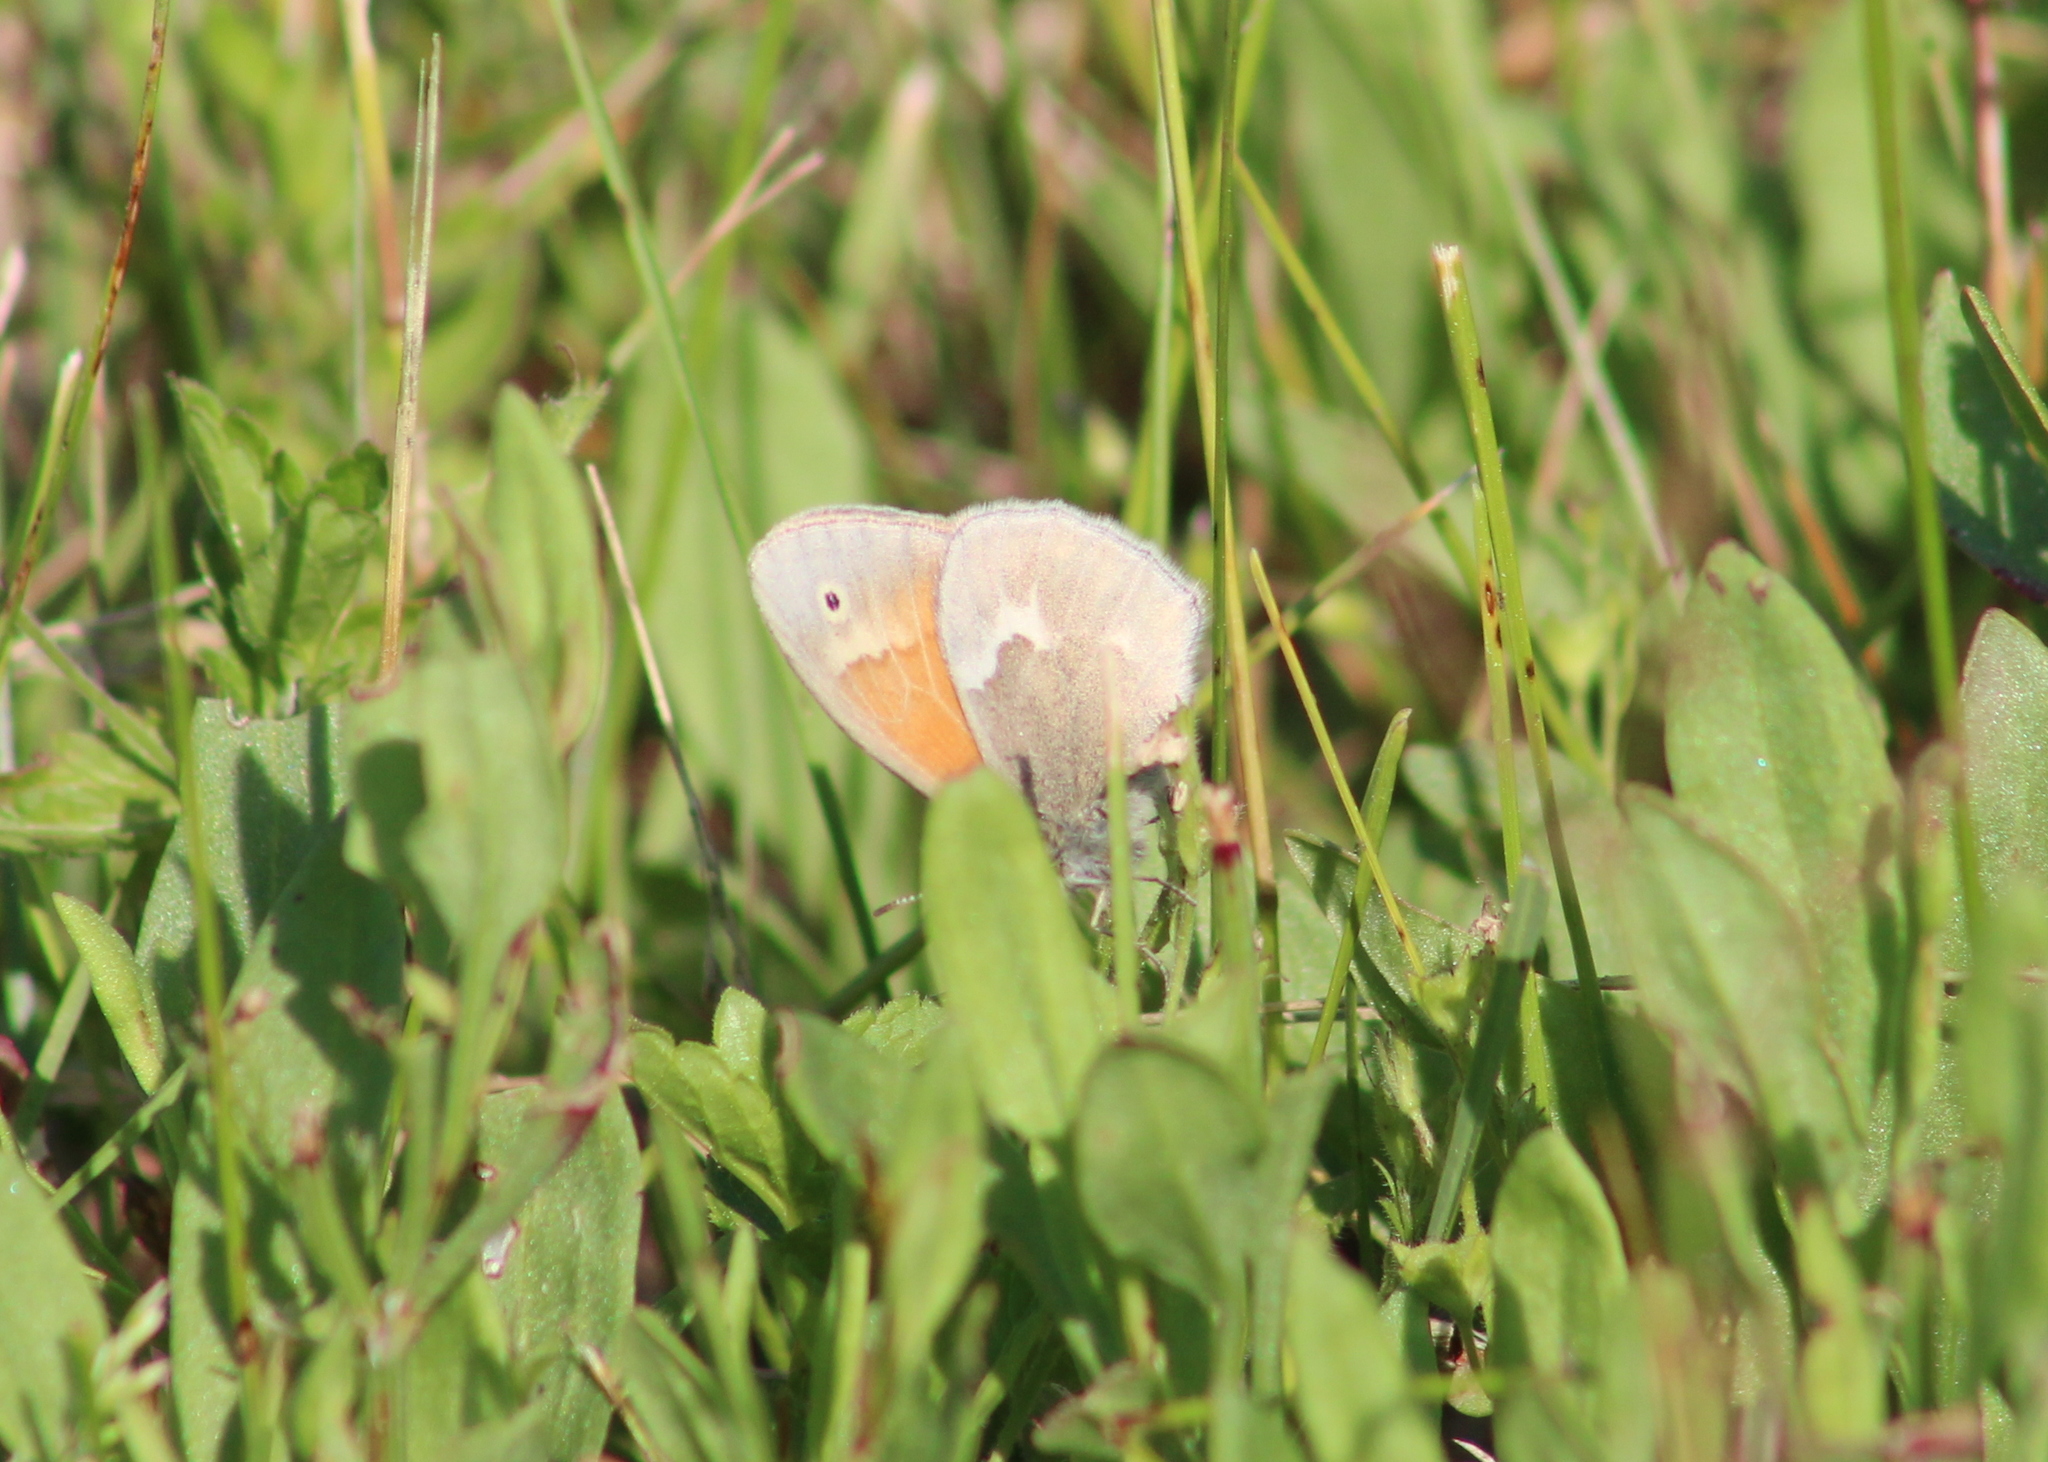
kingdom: Animalia
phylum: Arthropoda
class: Insecta
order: Lepidoptera
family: Nymphalidae
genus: Coenonympha
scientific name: Coenonympha california
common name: Common ringlet
